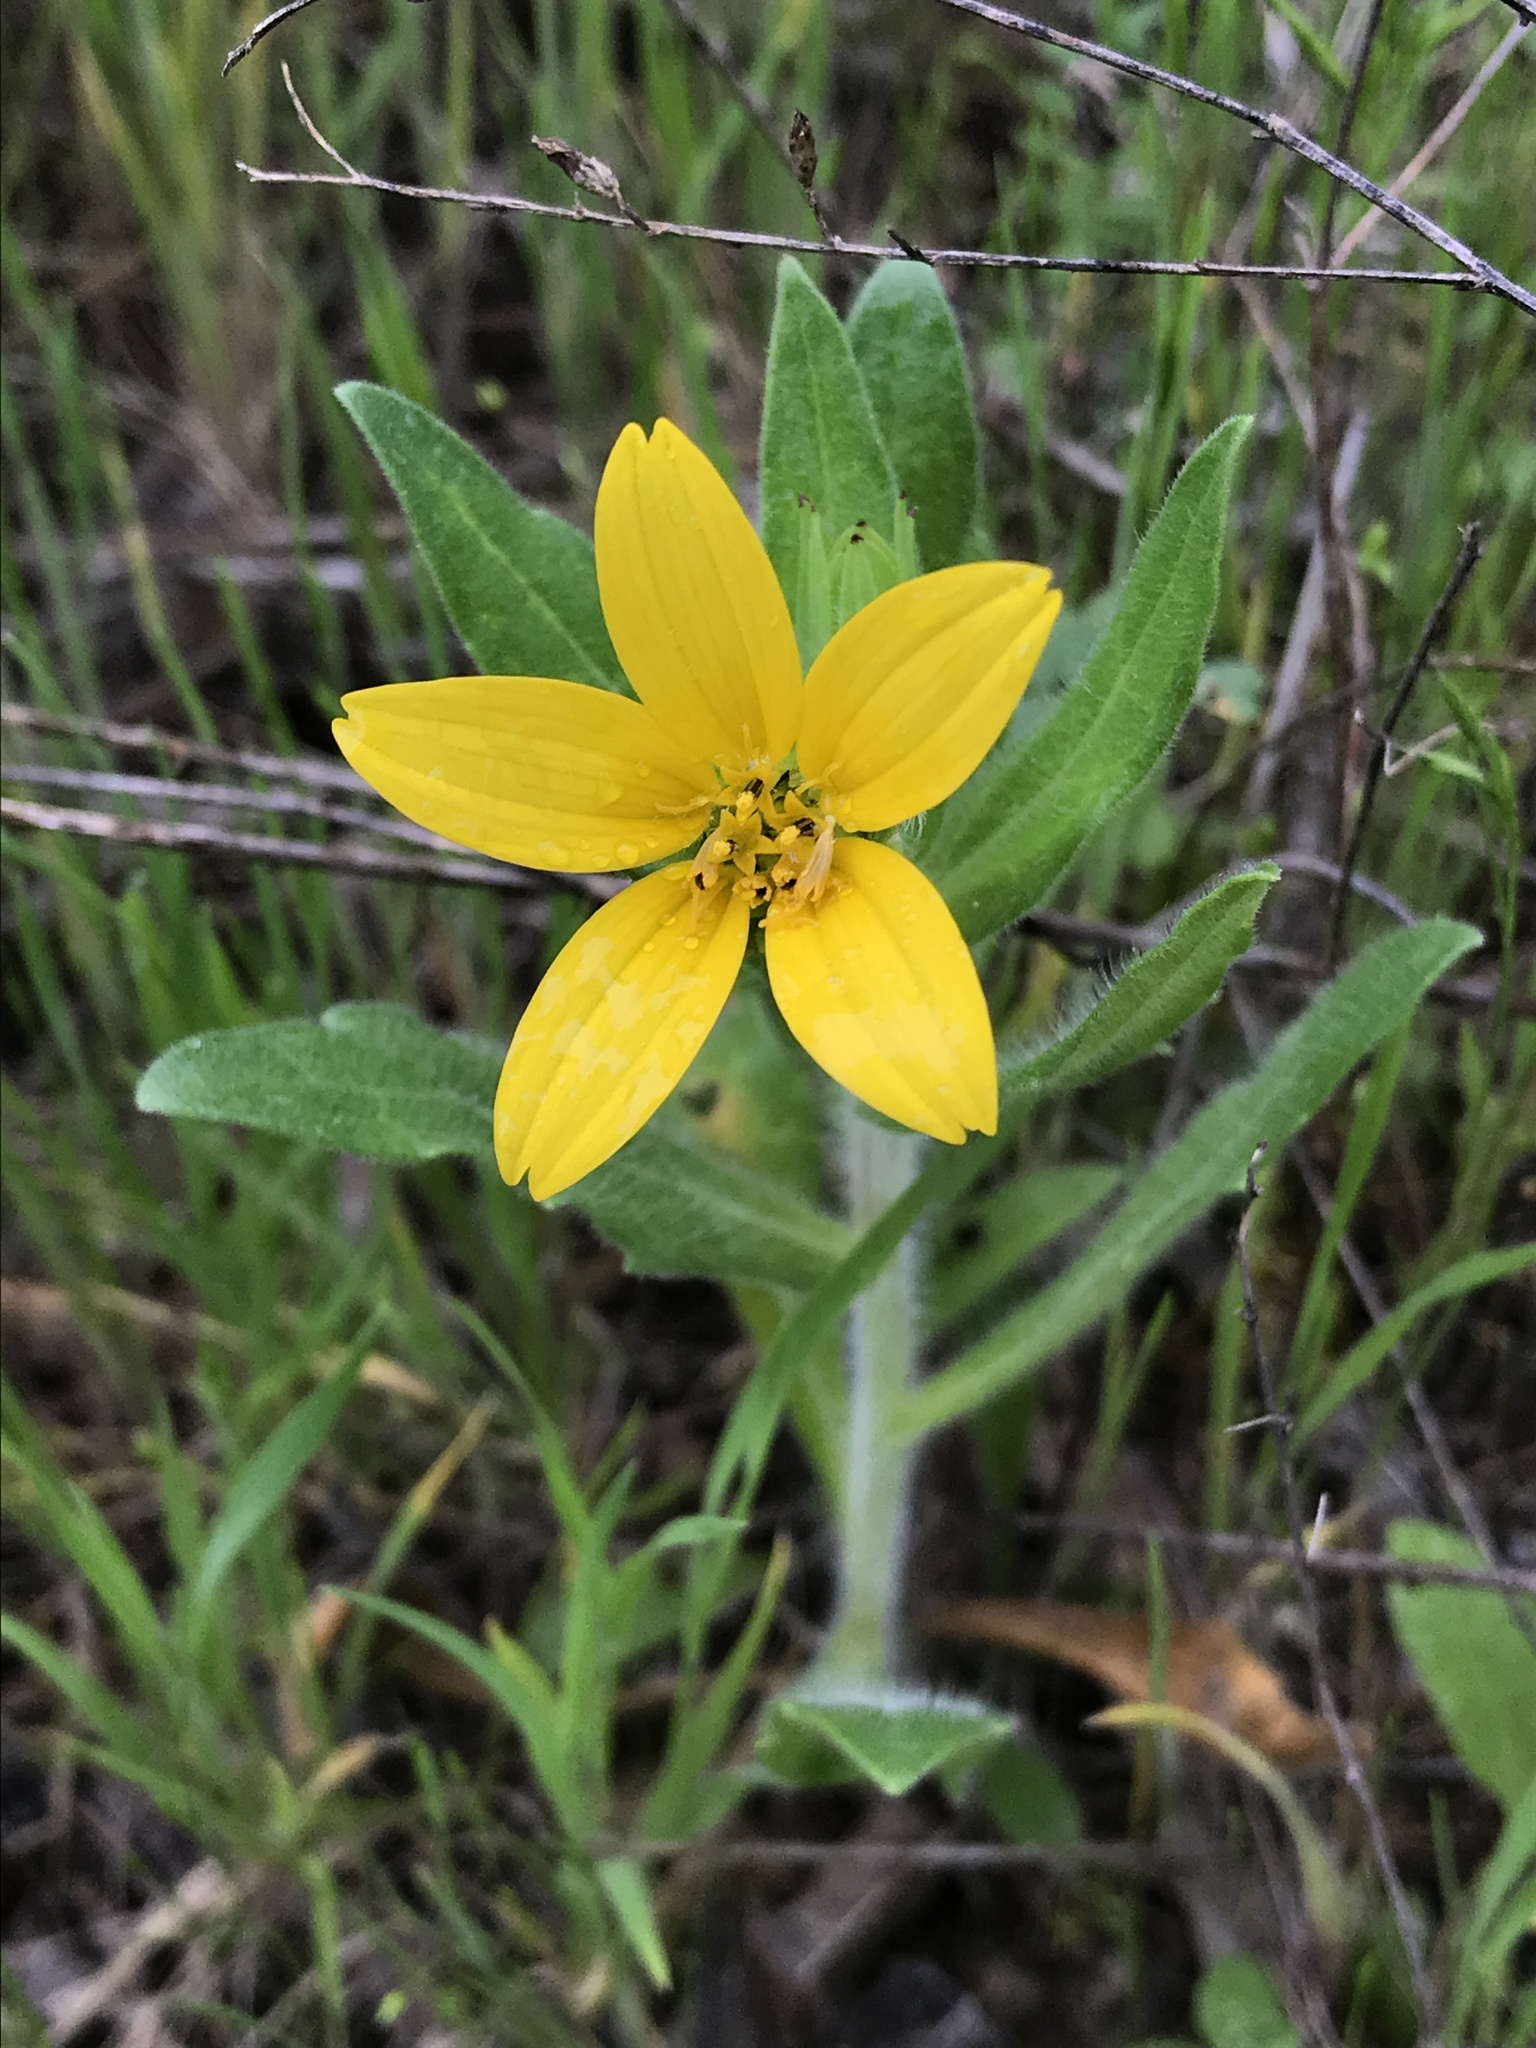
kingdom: Plantae
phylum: Tracheophyta
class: Magnoliopsida
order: Asterales
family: Asteraceae
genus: Lindheimera
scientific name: Lindheimera texana
